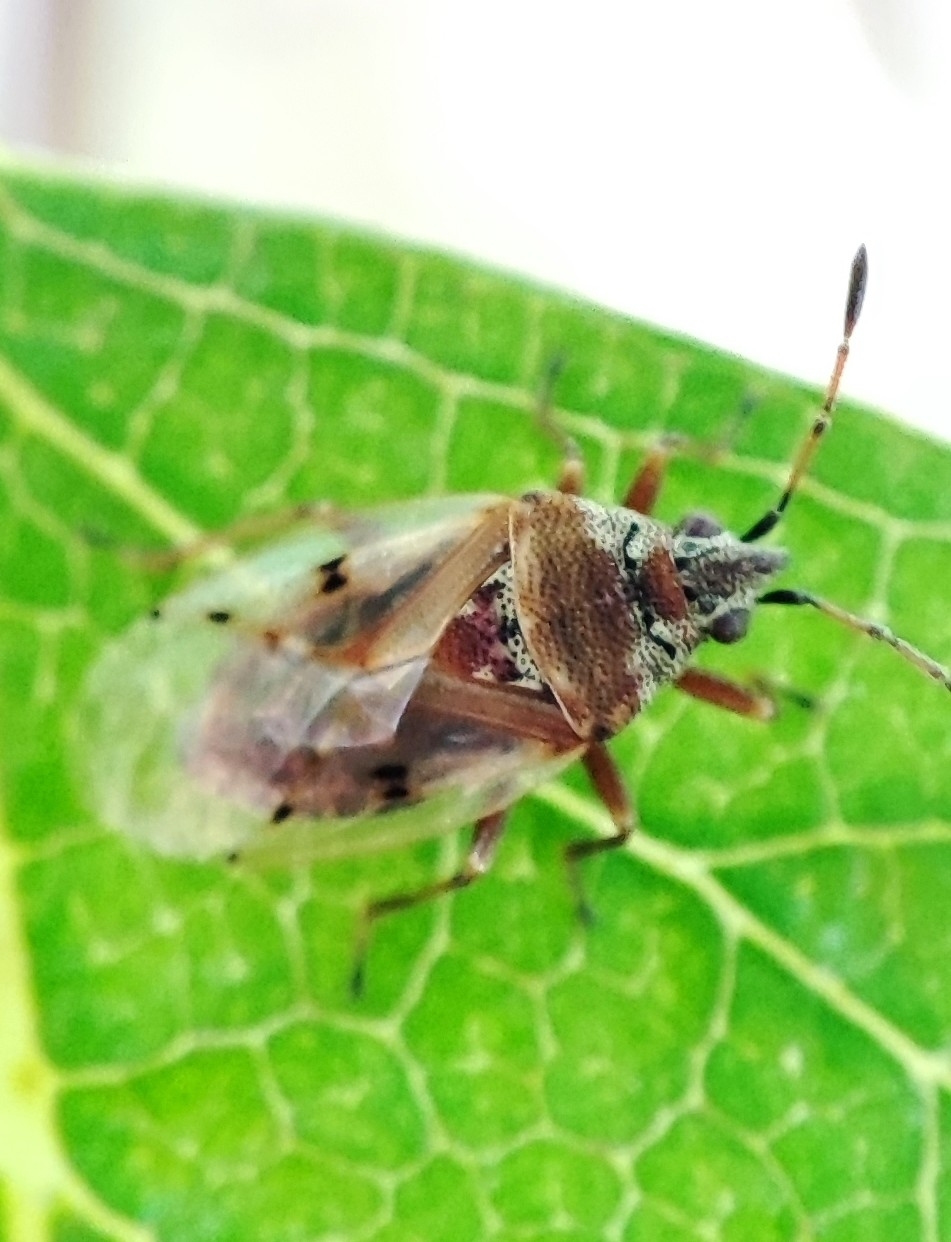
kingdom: Animalia
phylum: Arthropoda
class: Insecta
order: Hemiptera
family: Lygaeidae
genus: Kleidocerys
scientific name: Kleidocerys resedae
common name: Birch catkin bug
